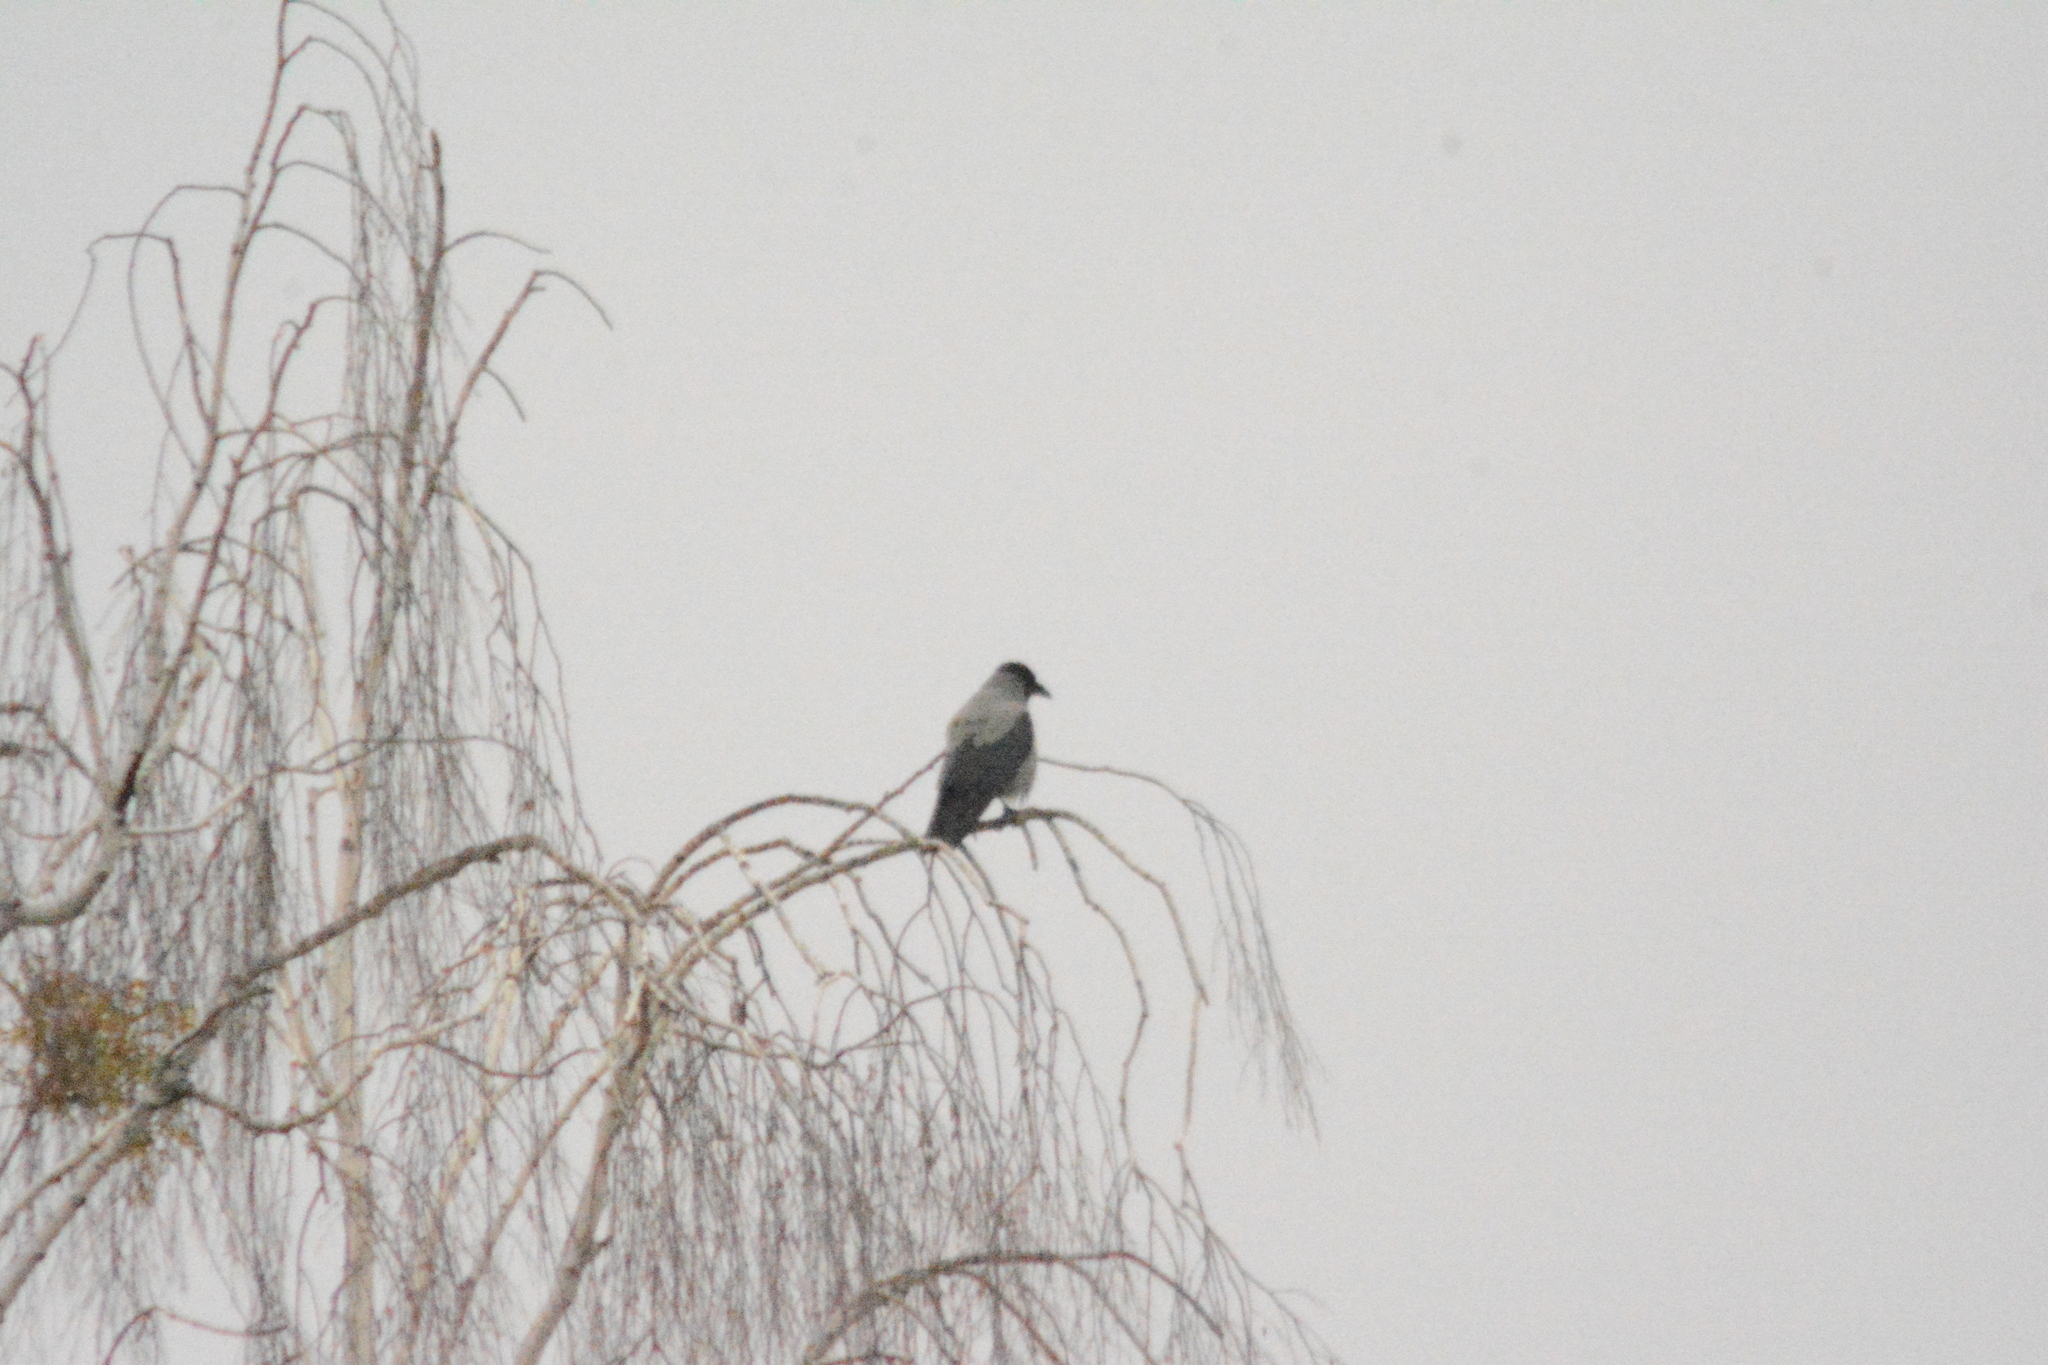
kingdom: Animalia
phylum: Chordata
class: Aves
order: Passeriformes
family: Corvidae
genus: Corvus
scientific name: Corvus cornix
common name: Hooded crow
